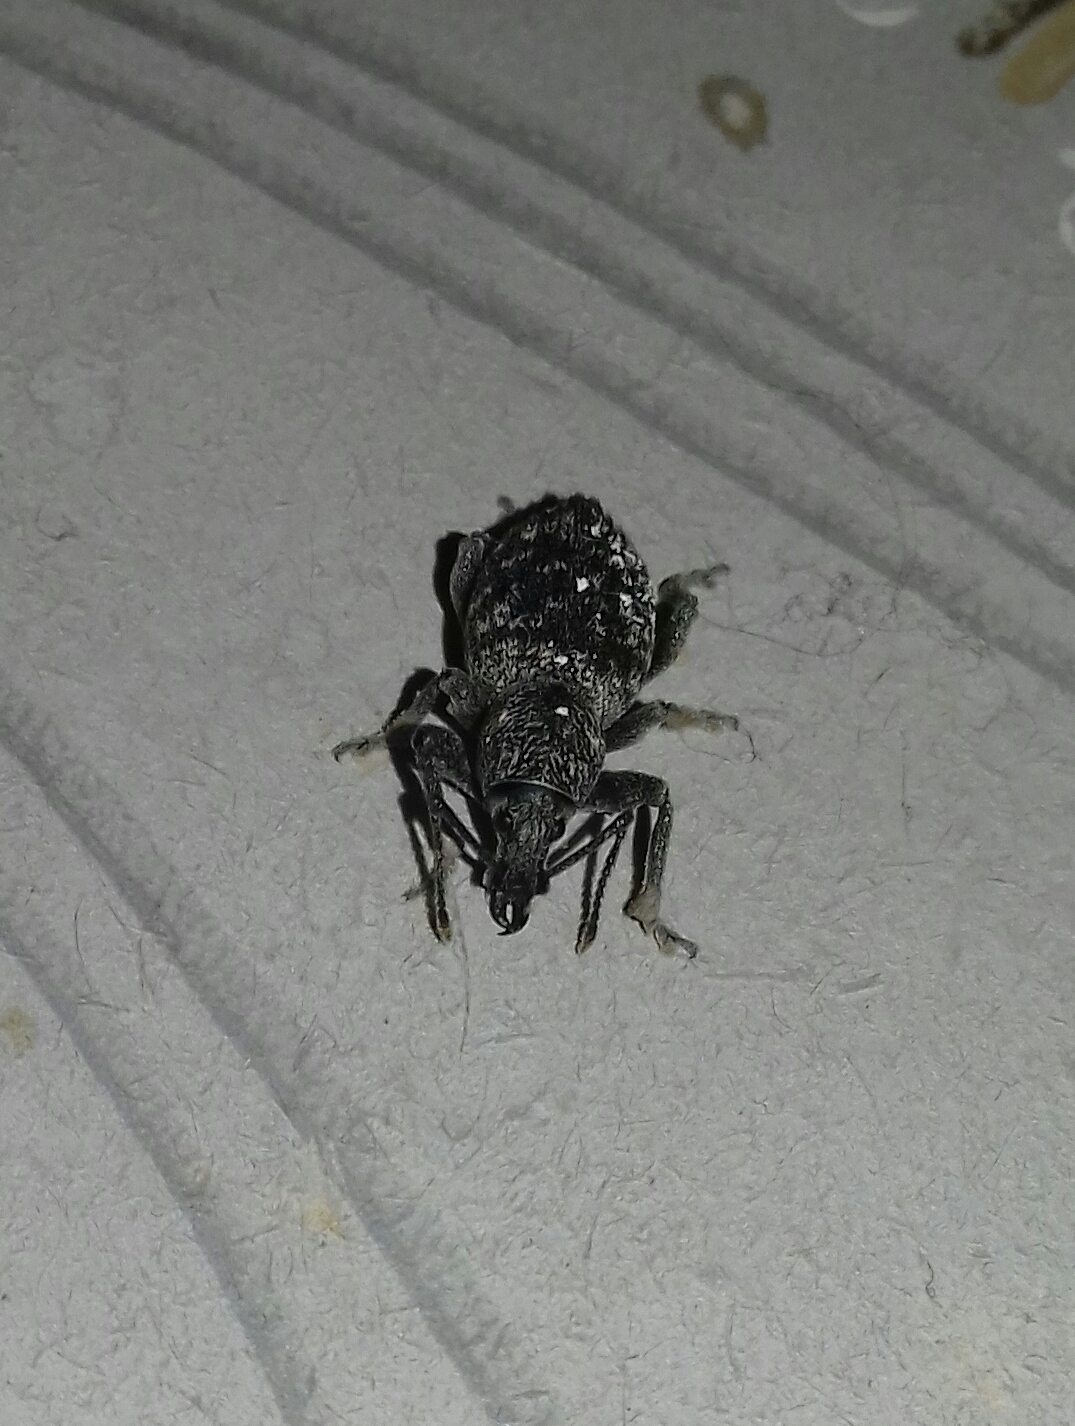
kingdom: Animalia
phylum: Arthropoda
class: Insecta
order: Coleoptera
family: Curculionidae
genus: Otiorhynchus
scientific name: Otiorhynchus scopularis
